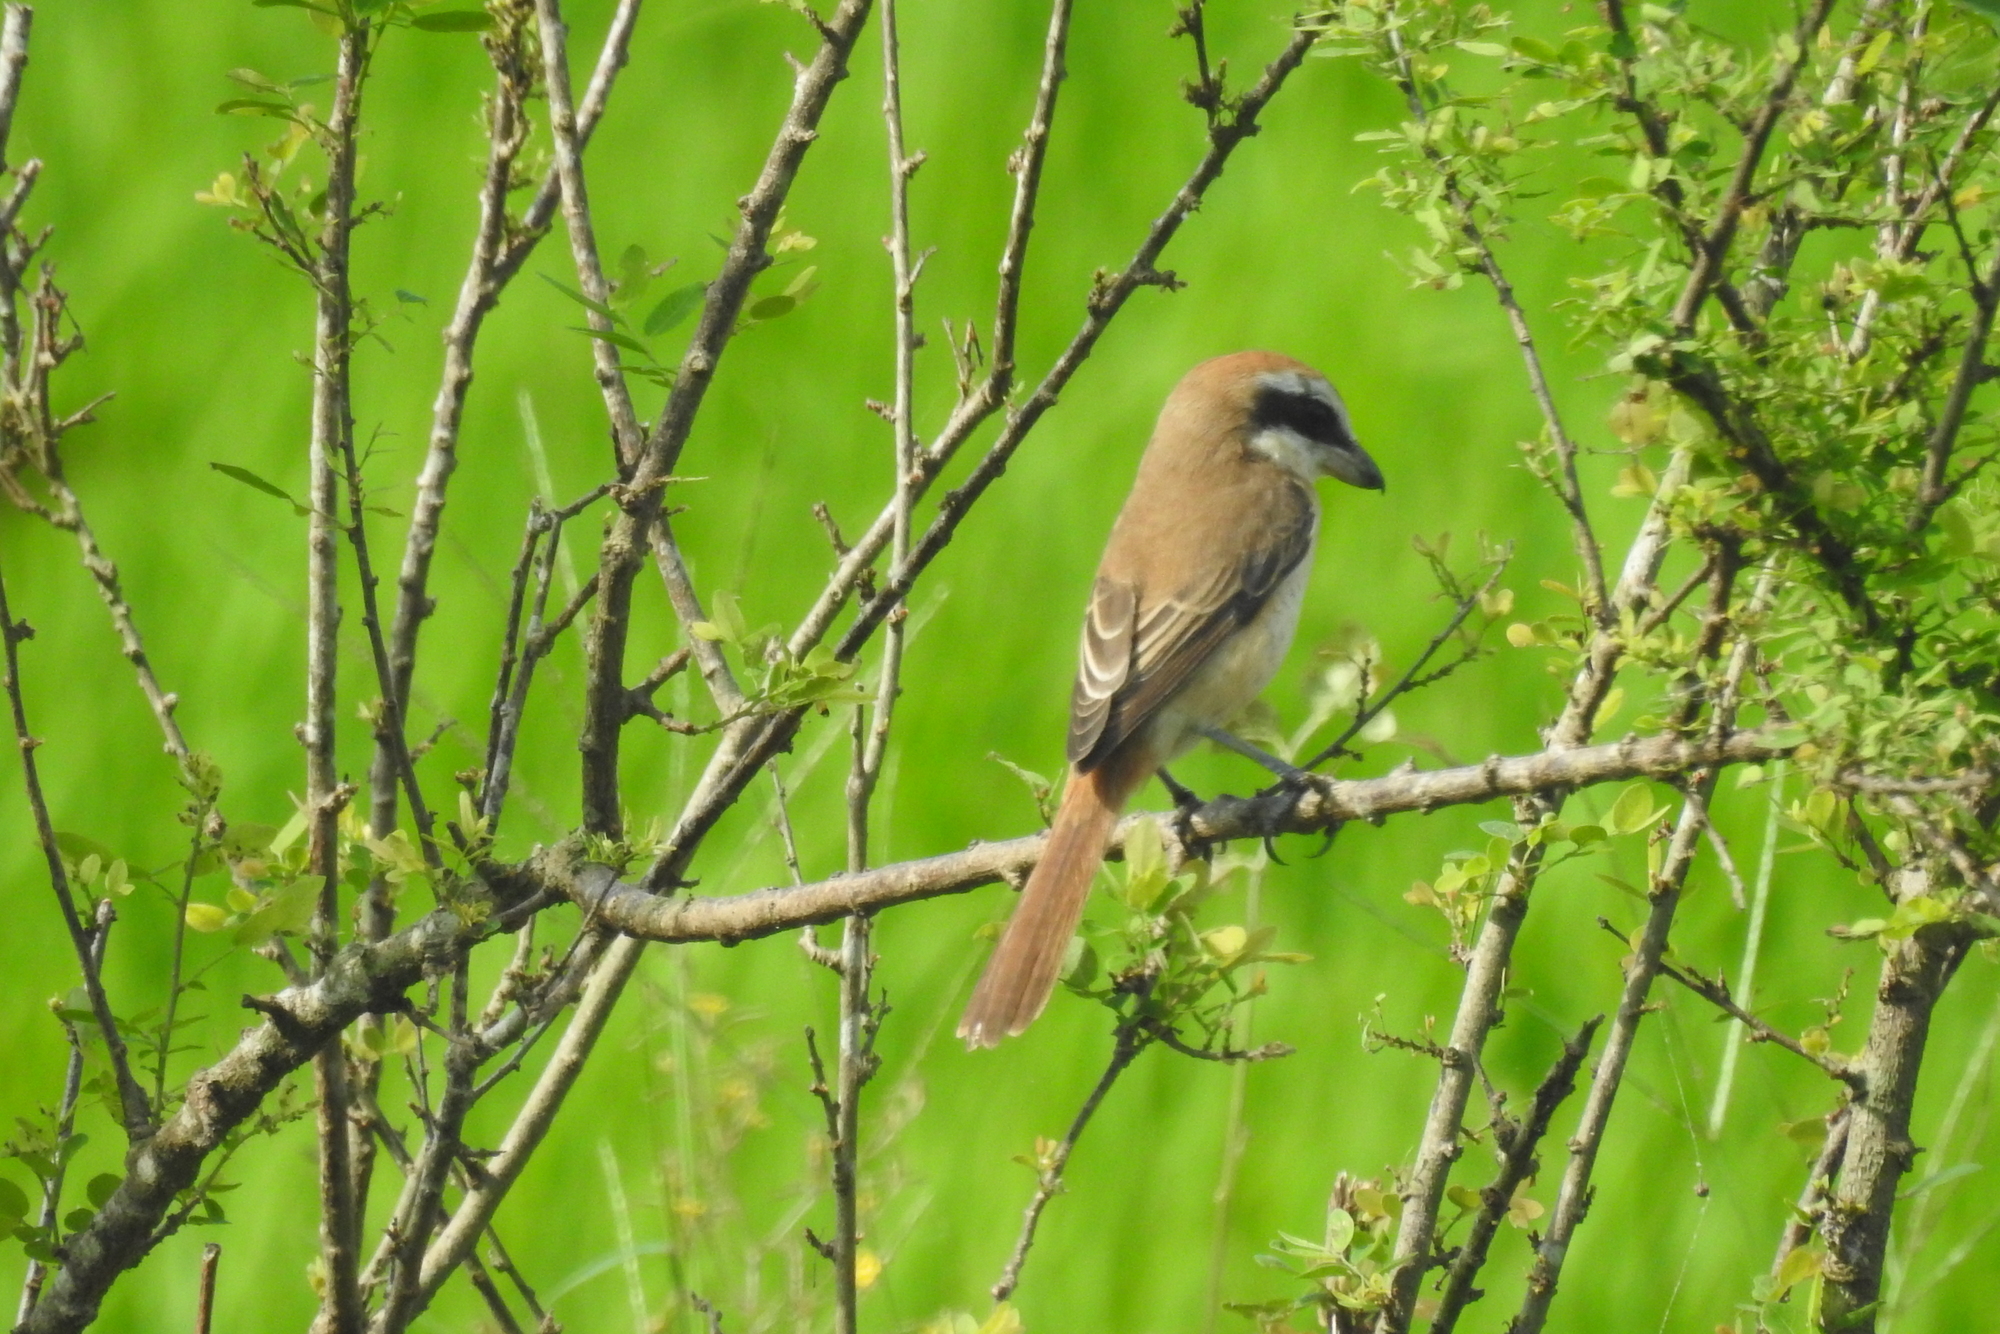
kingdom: Animalia
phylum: Chordata
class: Aves
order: Passeriformes
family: Laniidae
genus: Lanius
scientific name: Lanius cristatus
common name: Brown shrike
